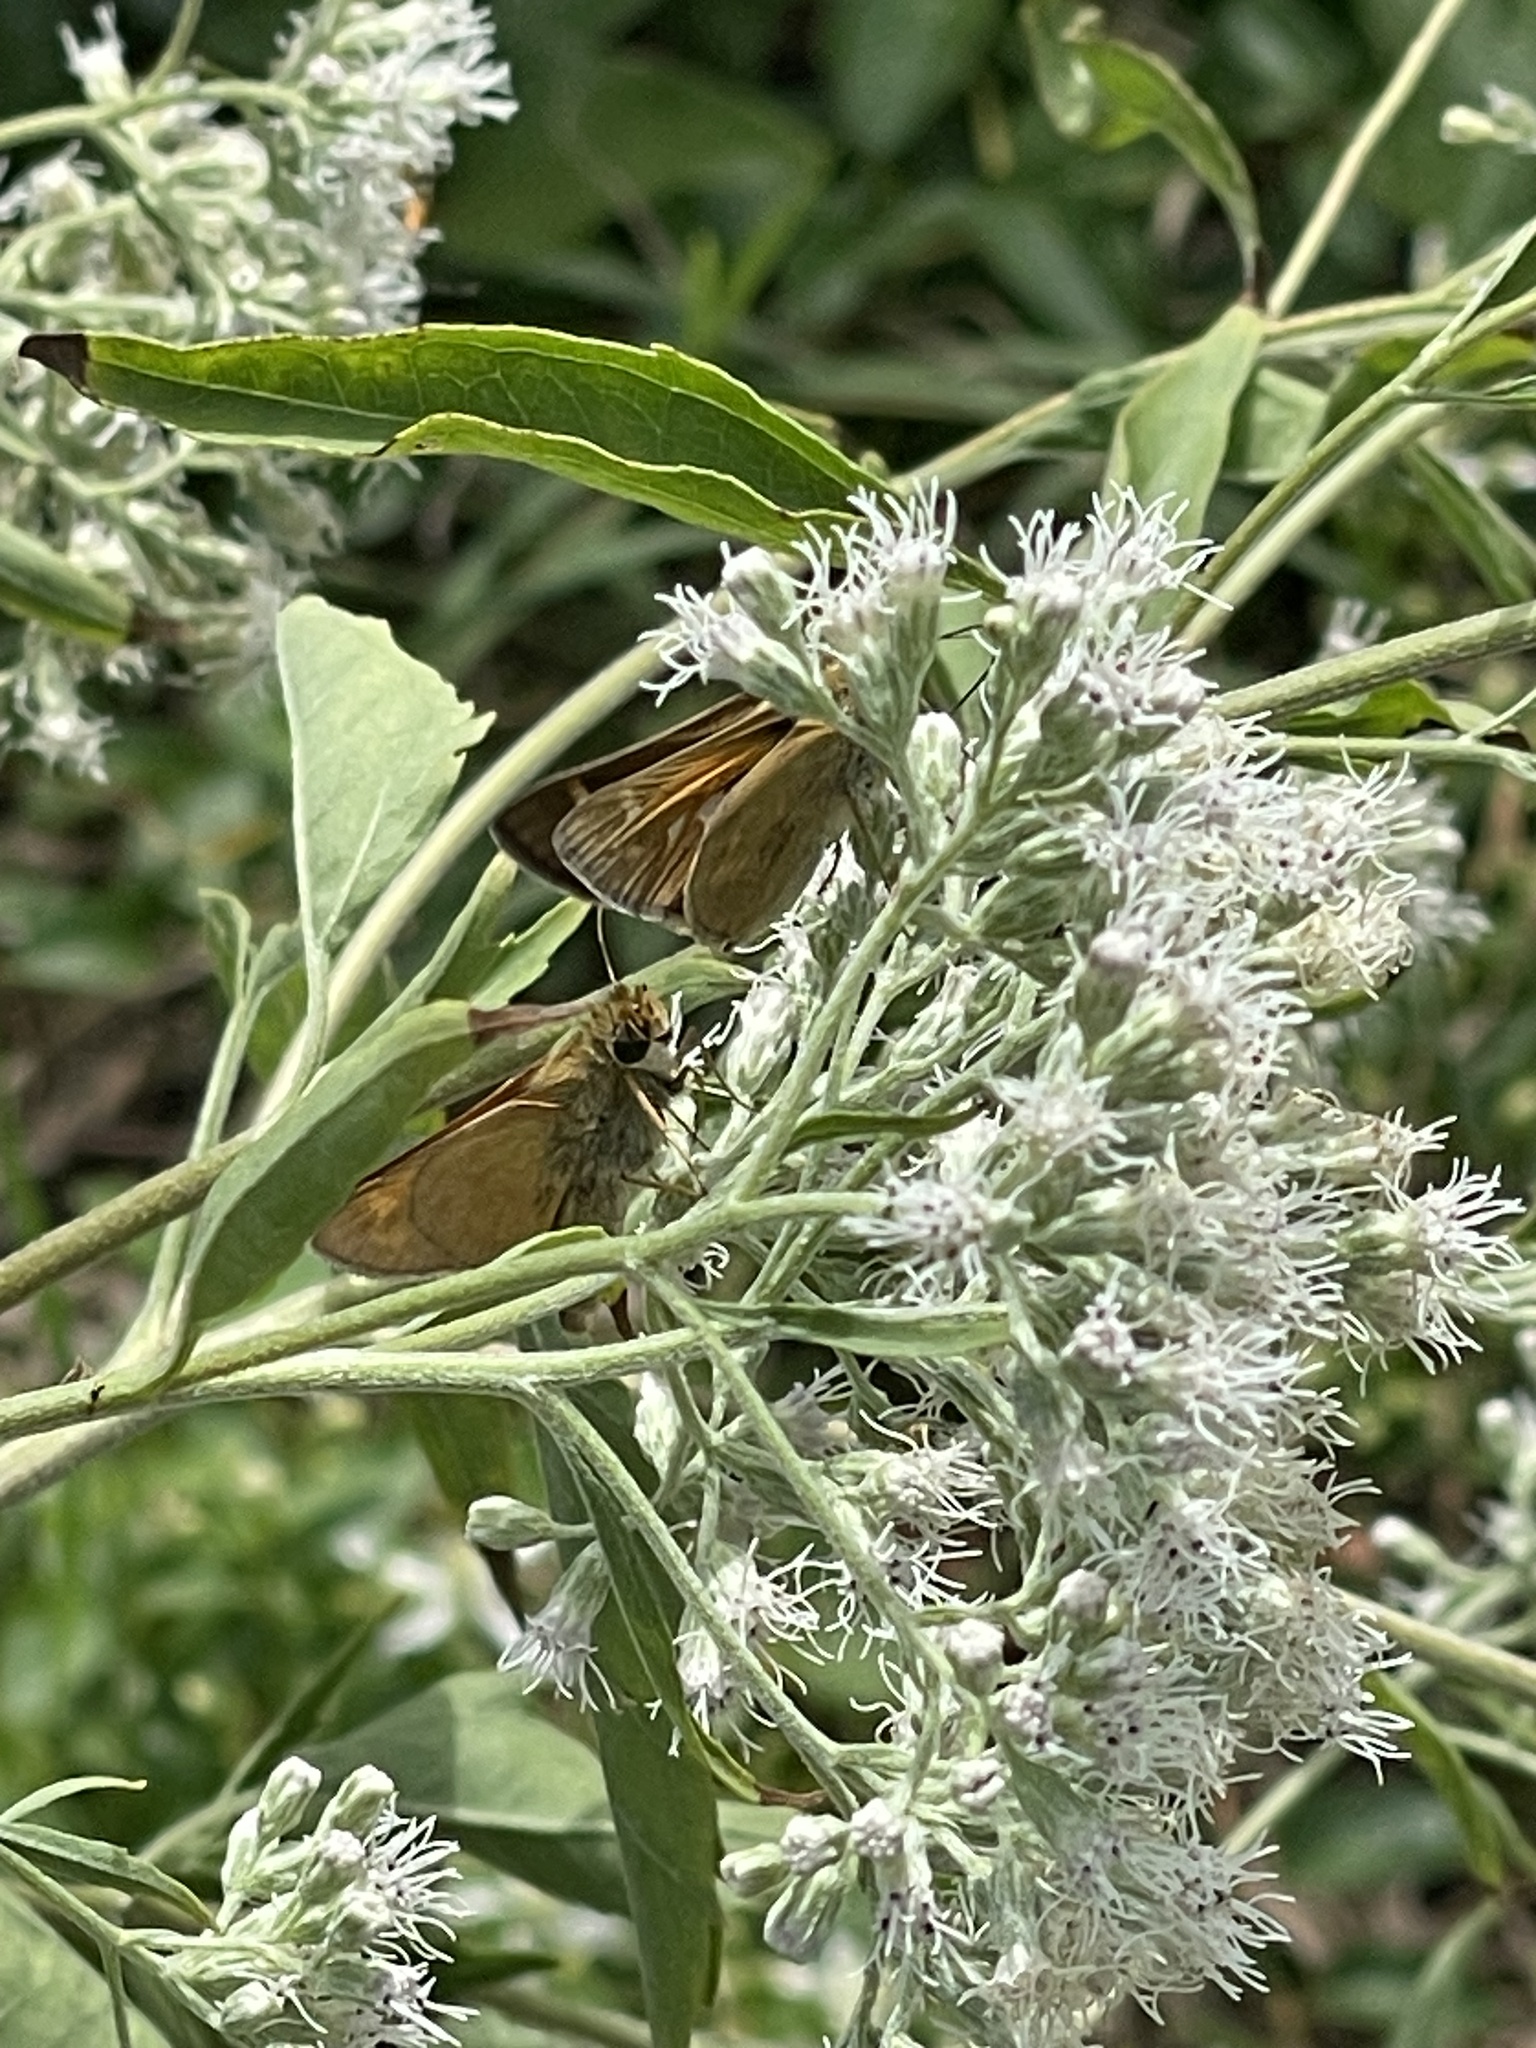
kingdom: Animalia
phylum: Arthropoda
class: Insecta
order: Lepidoptera
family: Hesperiidae
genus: Atalopedes
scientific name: Atalopedes
